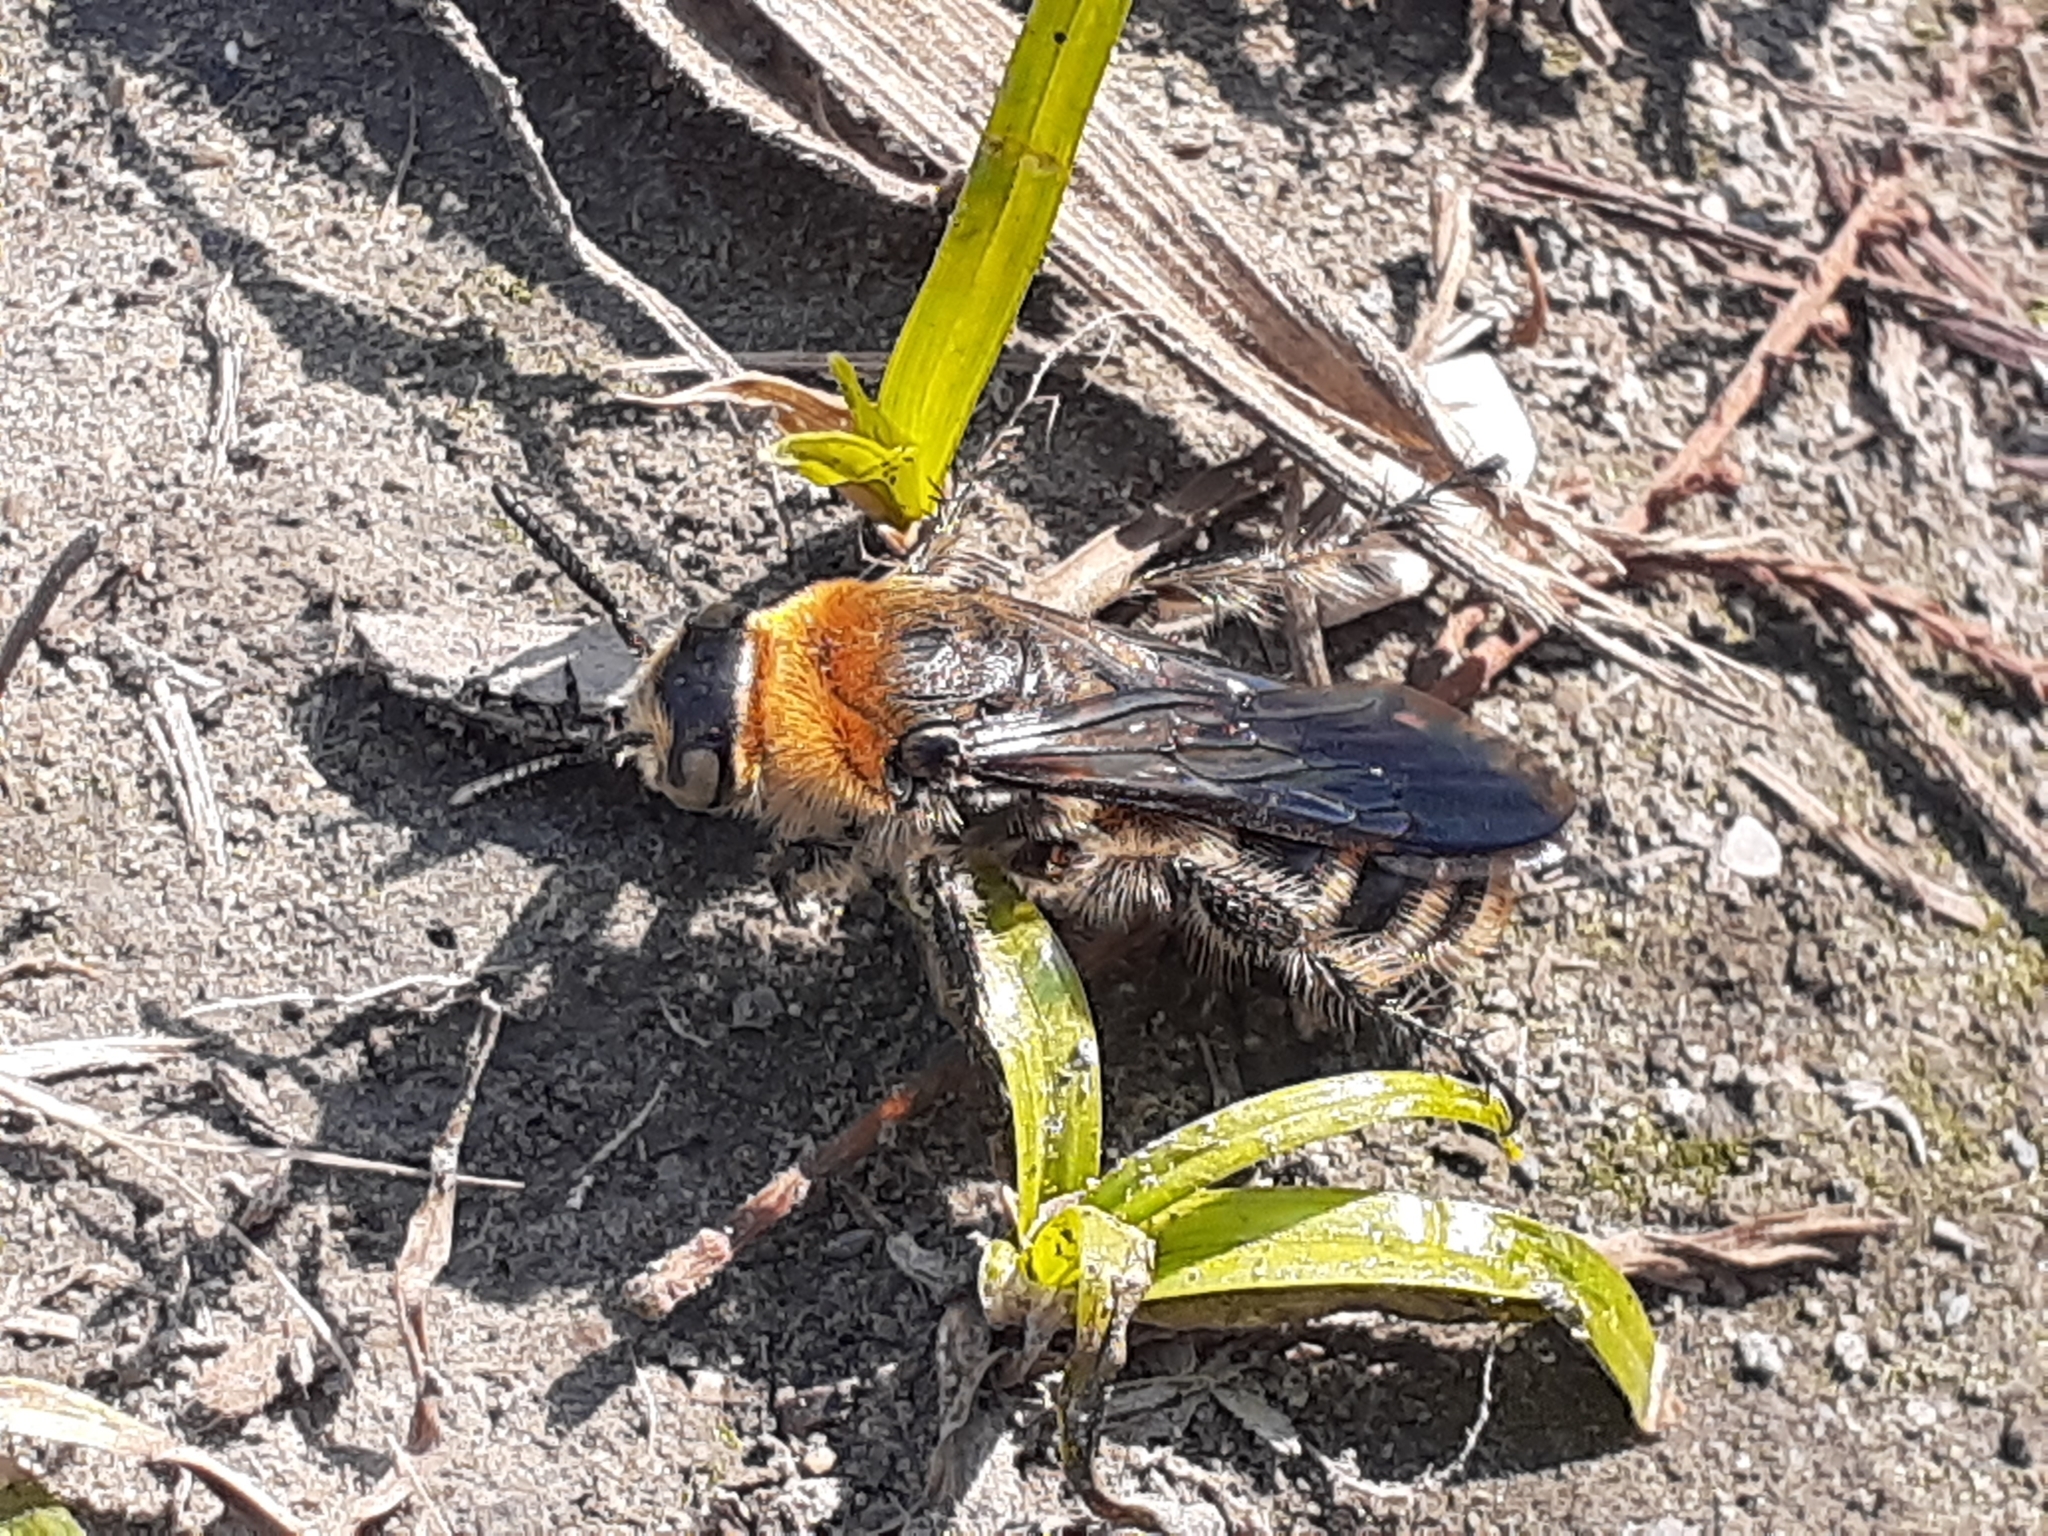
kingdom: Animalia
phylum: Arthropoda
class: Insecta
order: Hymenoptera
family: Scoliidae
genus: Campsomeriella
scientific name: Campsomeriella sauteri
